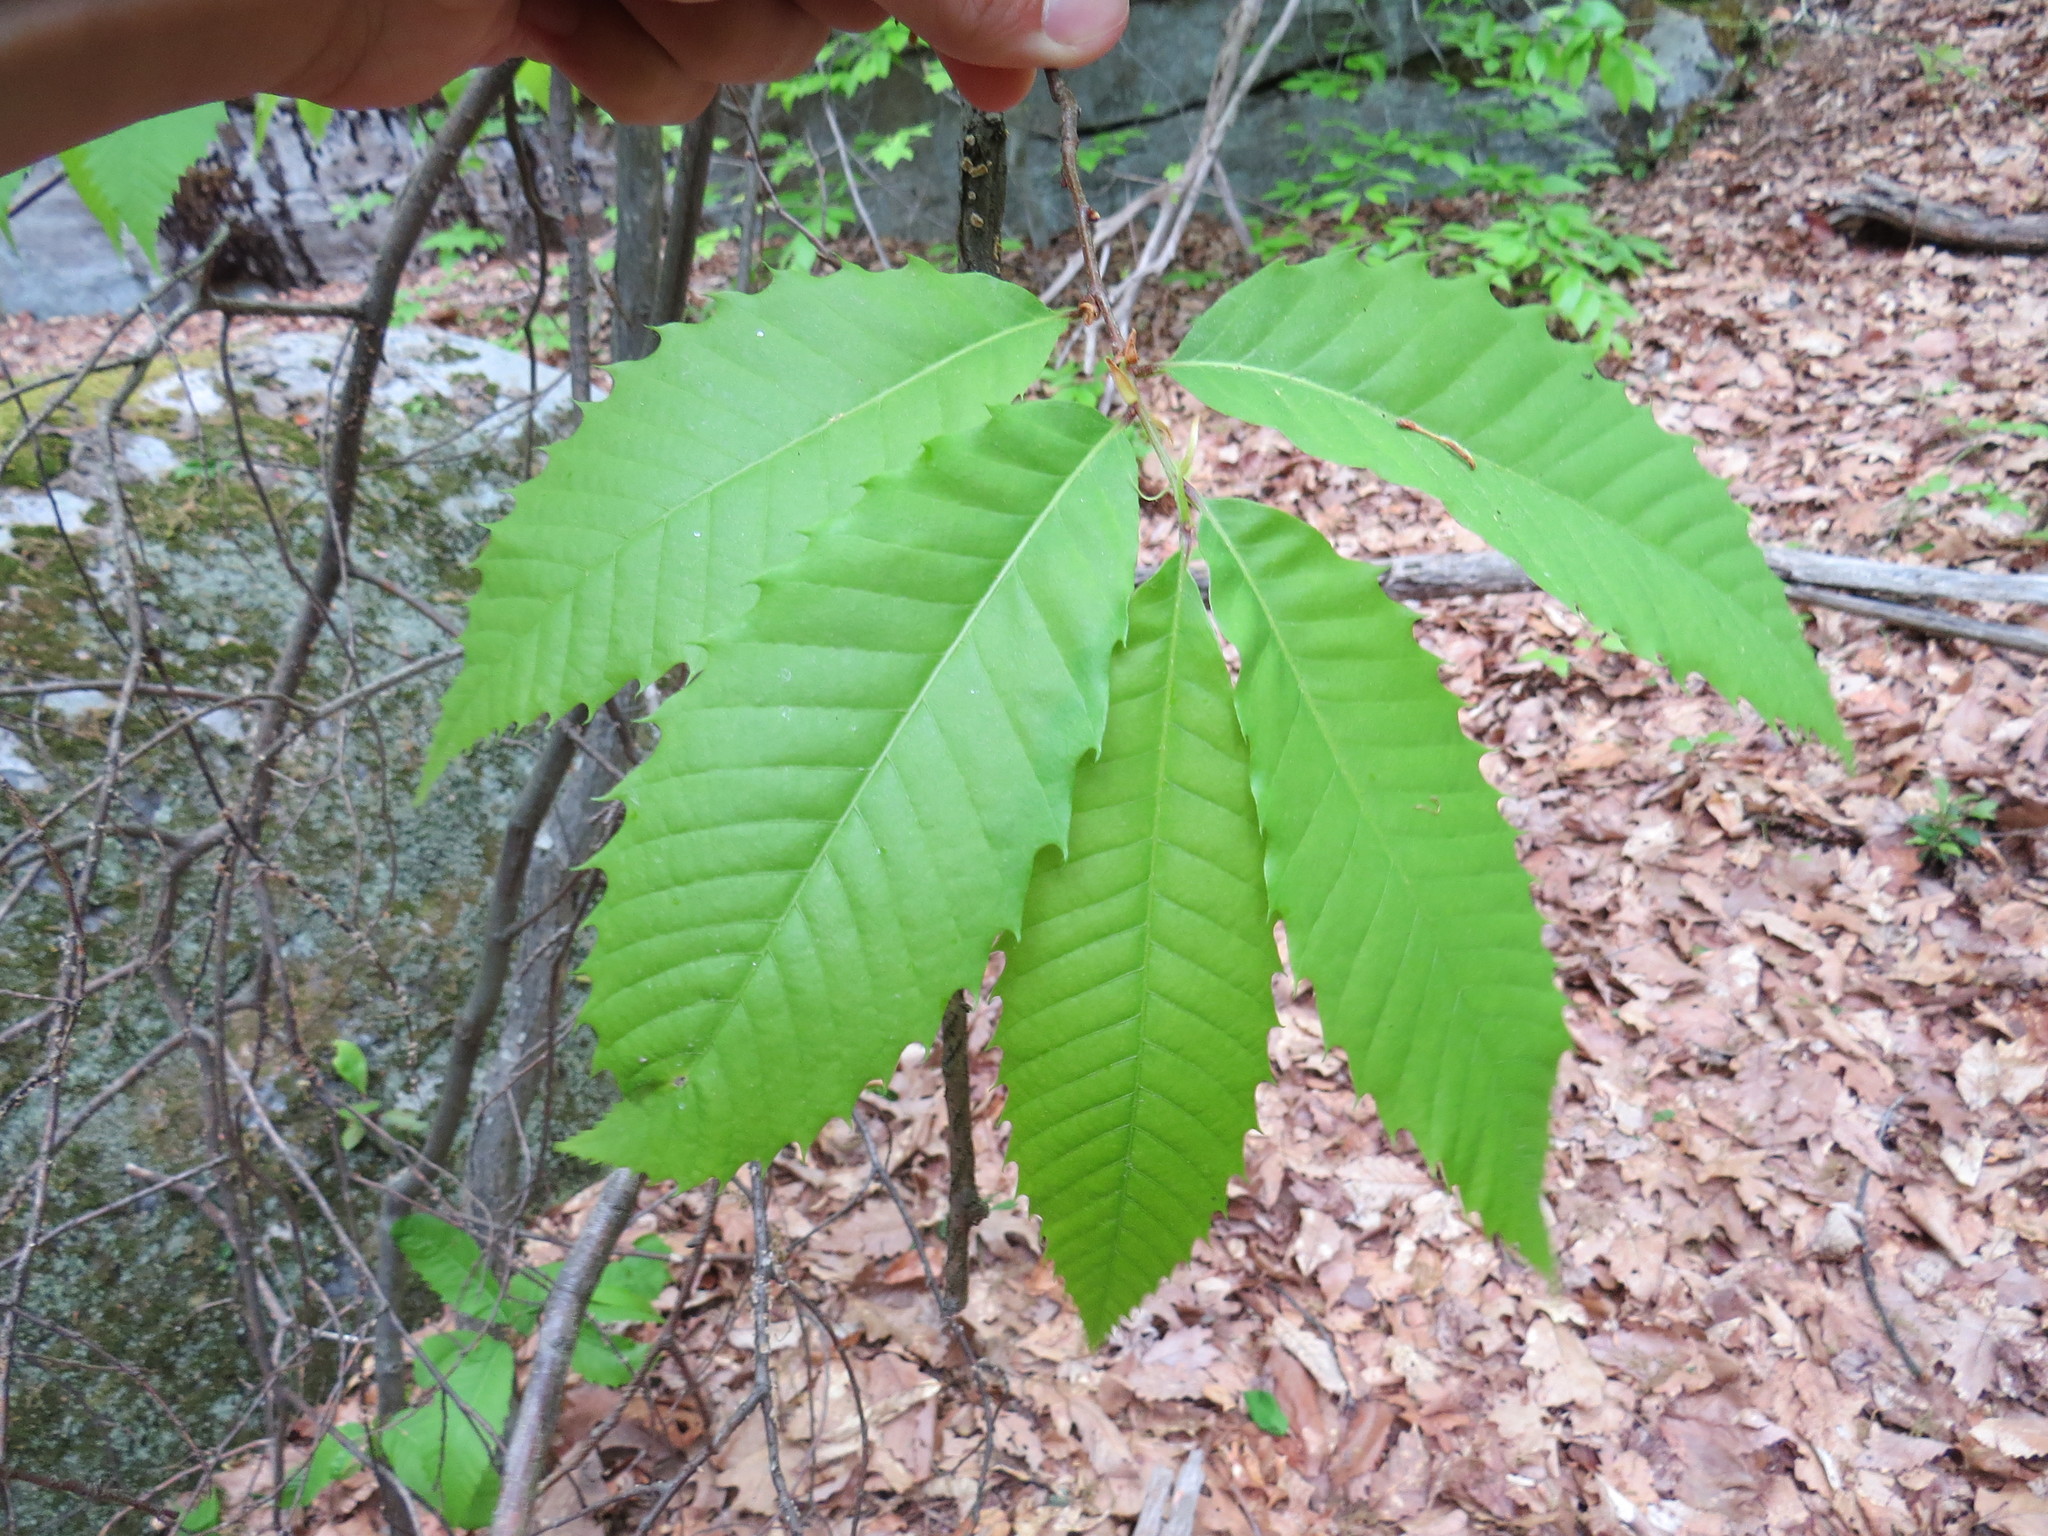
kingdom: Plantae
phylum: Tracheophyta
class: Magnoliopsida
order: Fagales
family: Fagaceae
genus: Castanea
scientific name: Castanea dentata
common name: American chestnut
